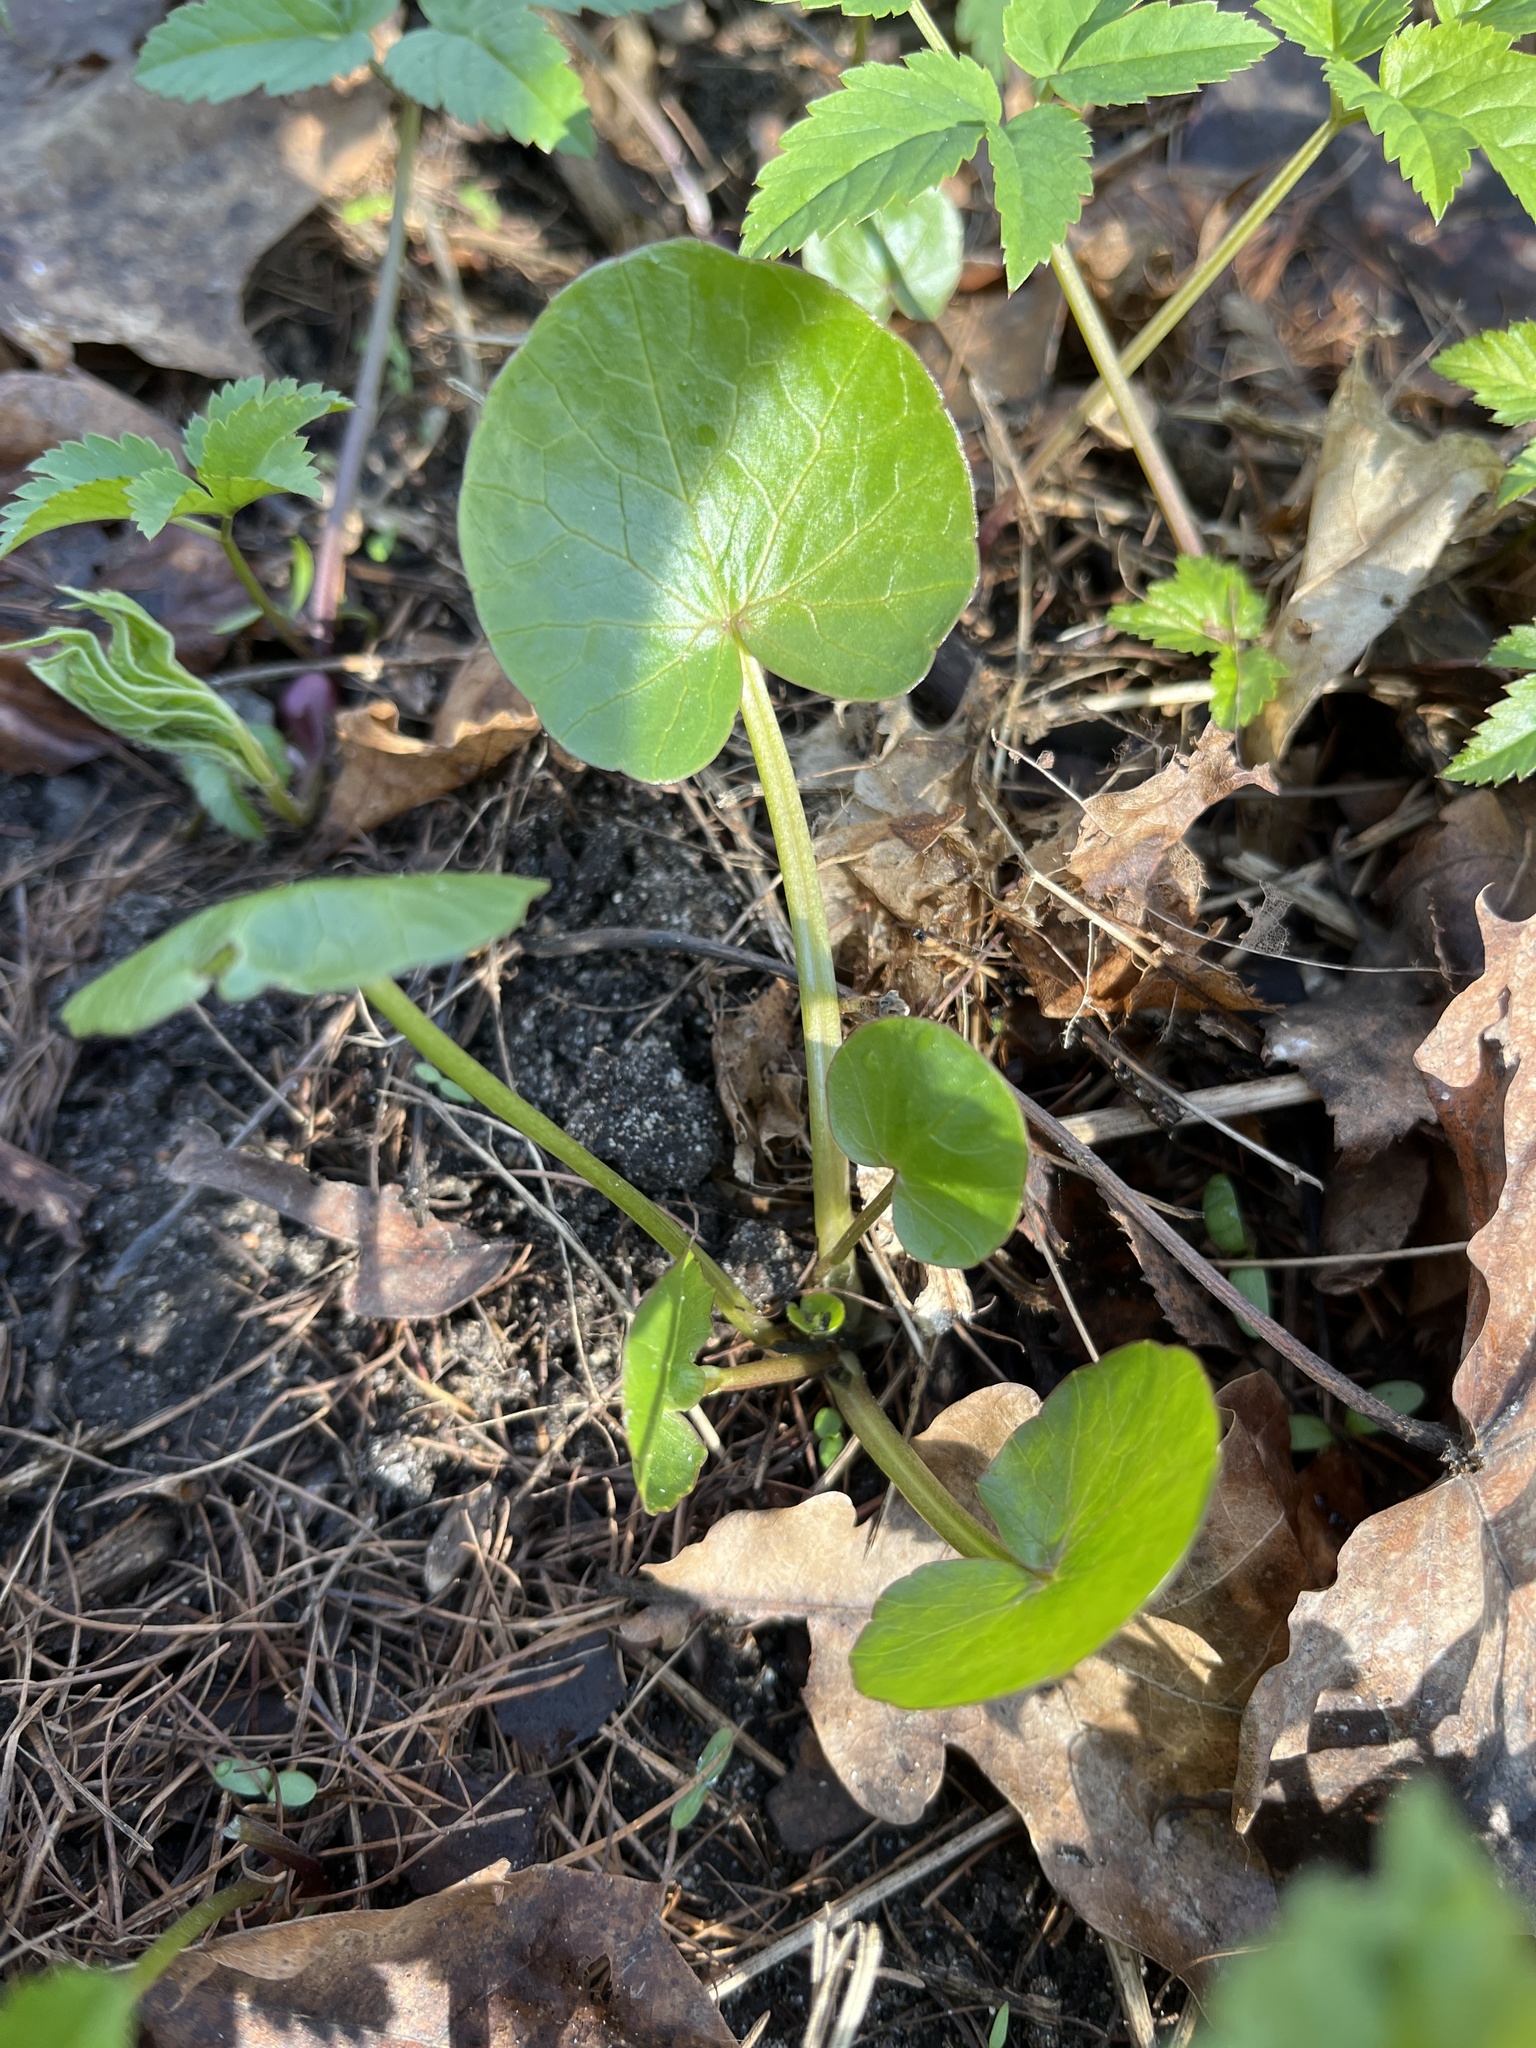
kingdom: Plantae
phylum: Tracheophyta
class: Magnoliopsida
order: Ranunculales
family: Ranunculaceae
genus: Ficaria
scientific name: Ficaria verna
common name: Lesser celandine
